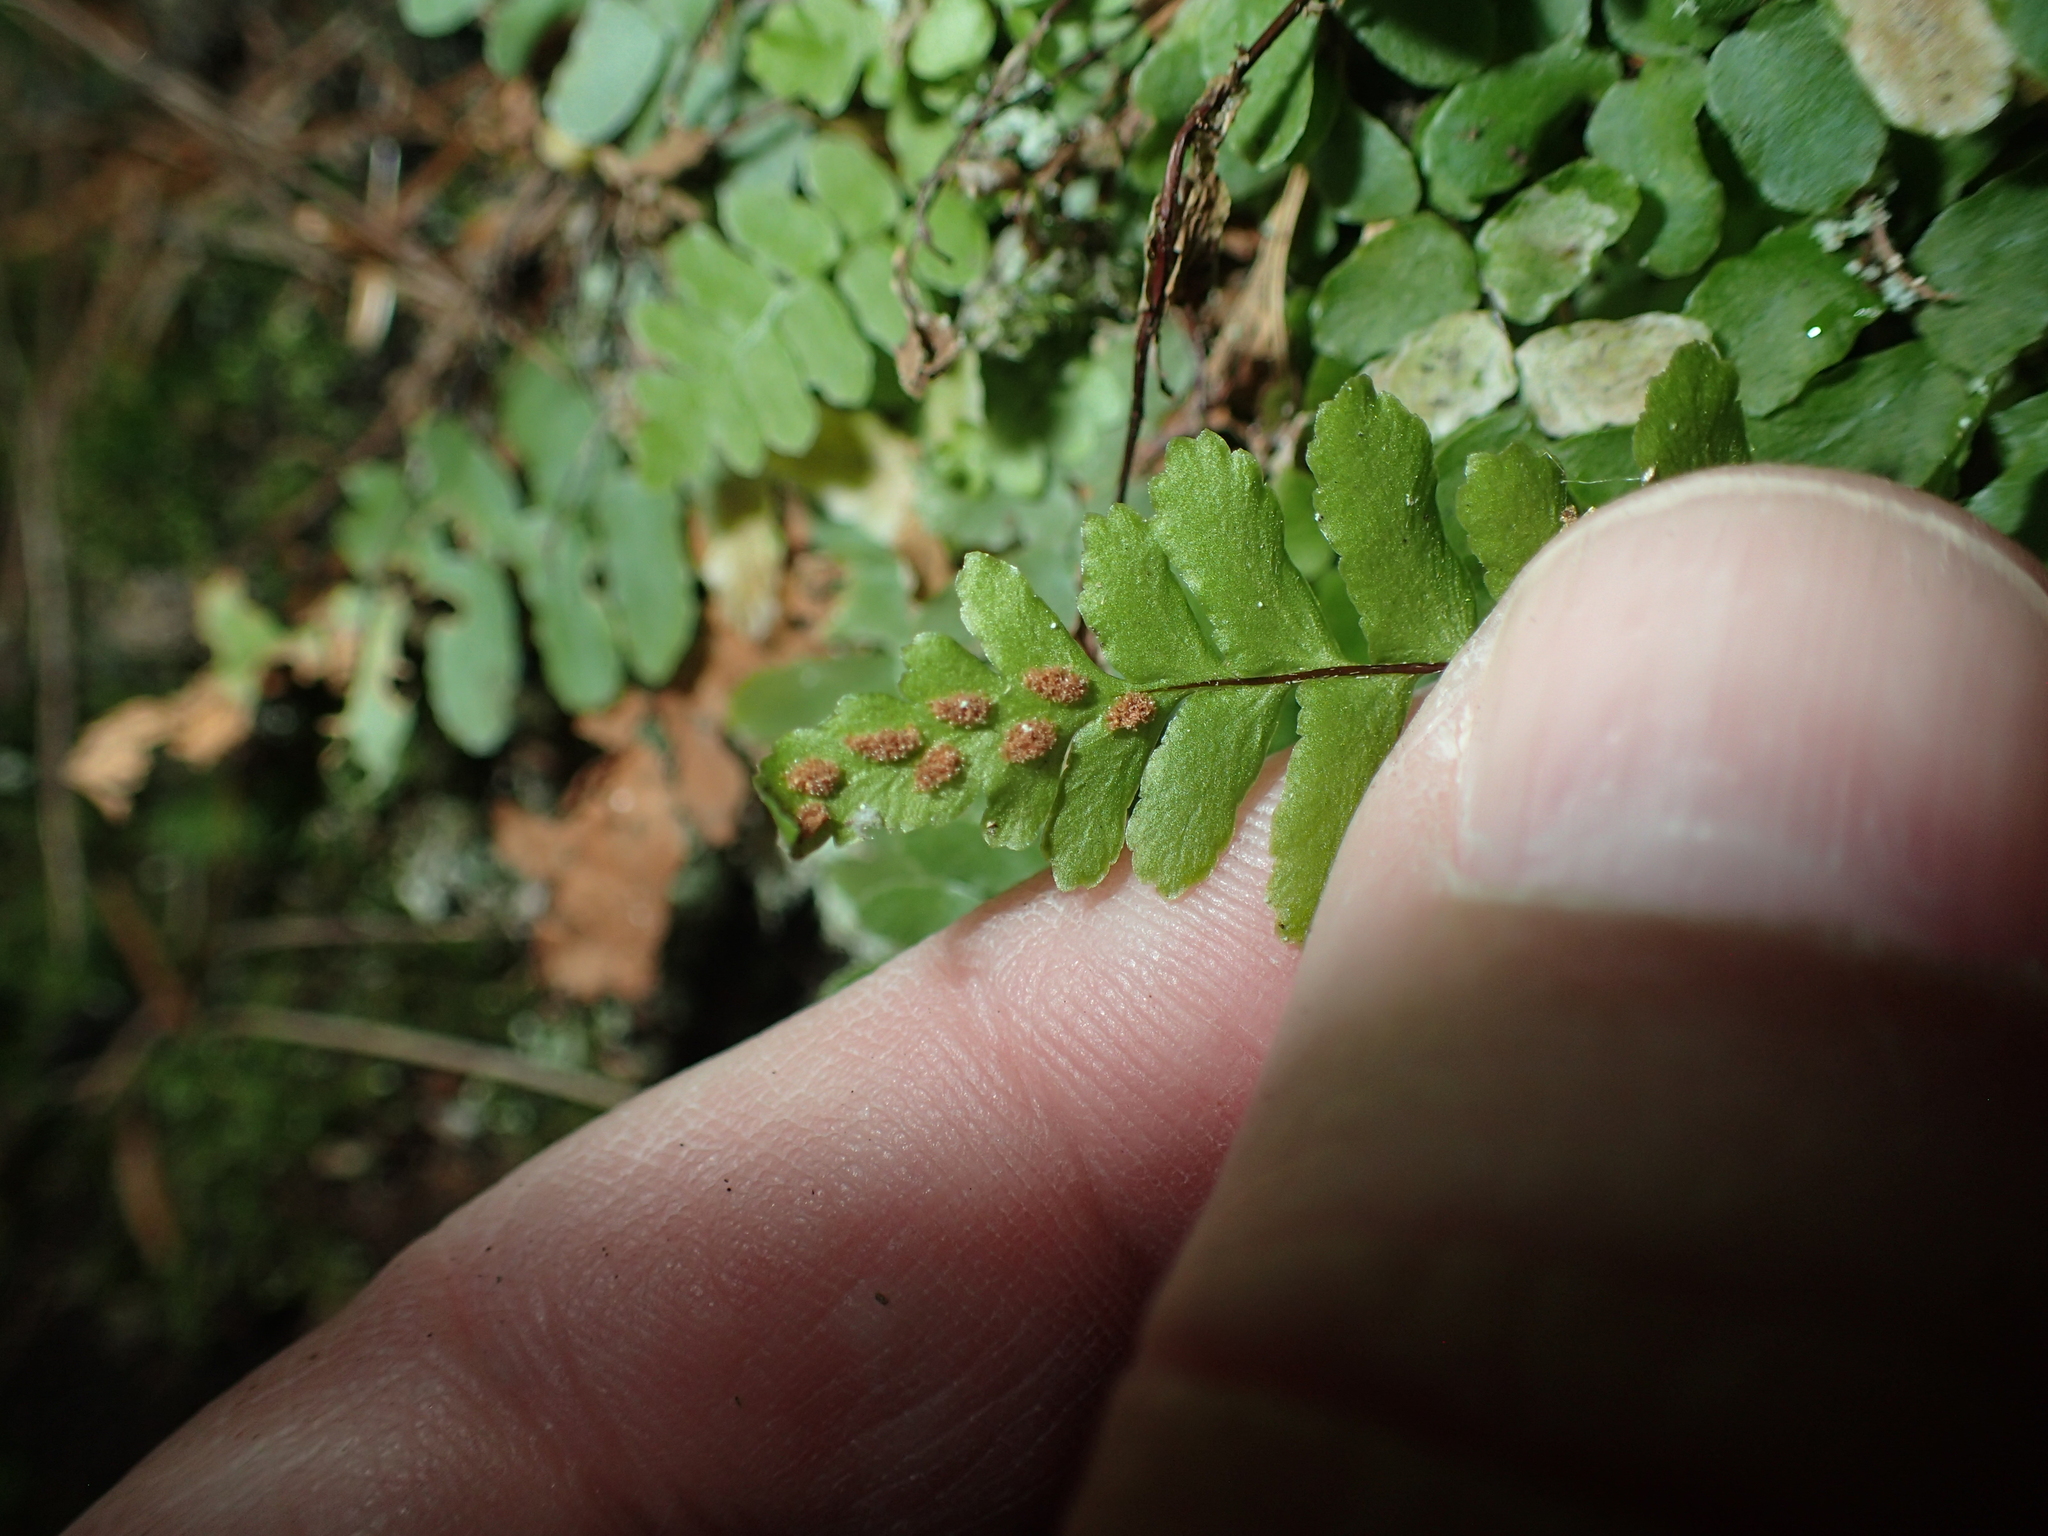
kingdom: Plantae
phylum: Tracheophyta
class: Polypodiopsida
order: Polypodiales
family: Aspleniaceae
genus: Asplenium
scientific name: Asplenium platyneuron
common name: Ebony spleenwort
